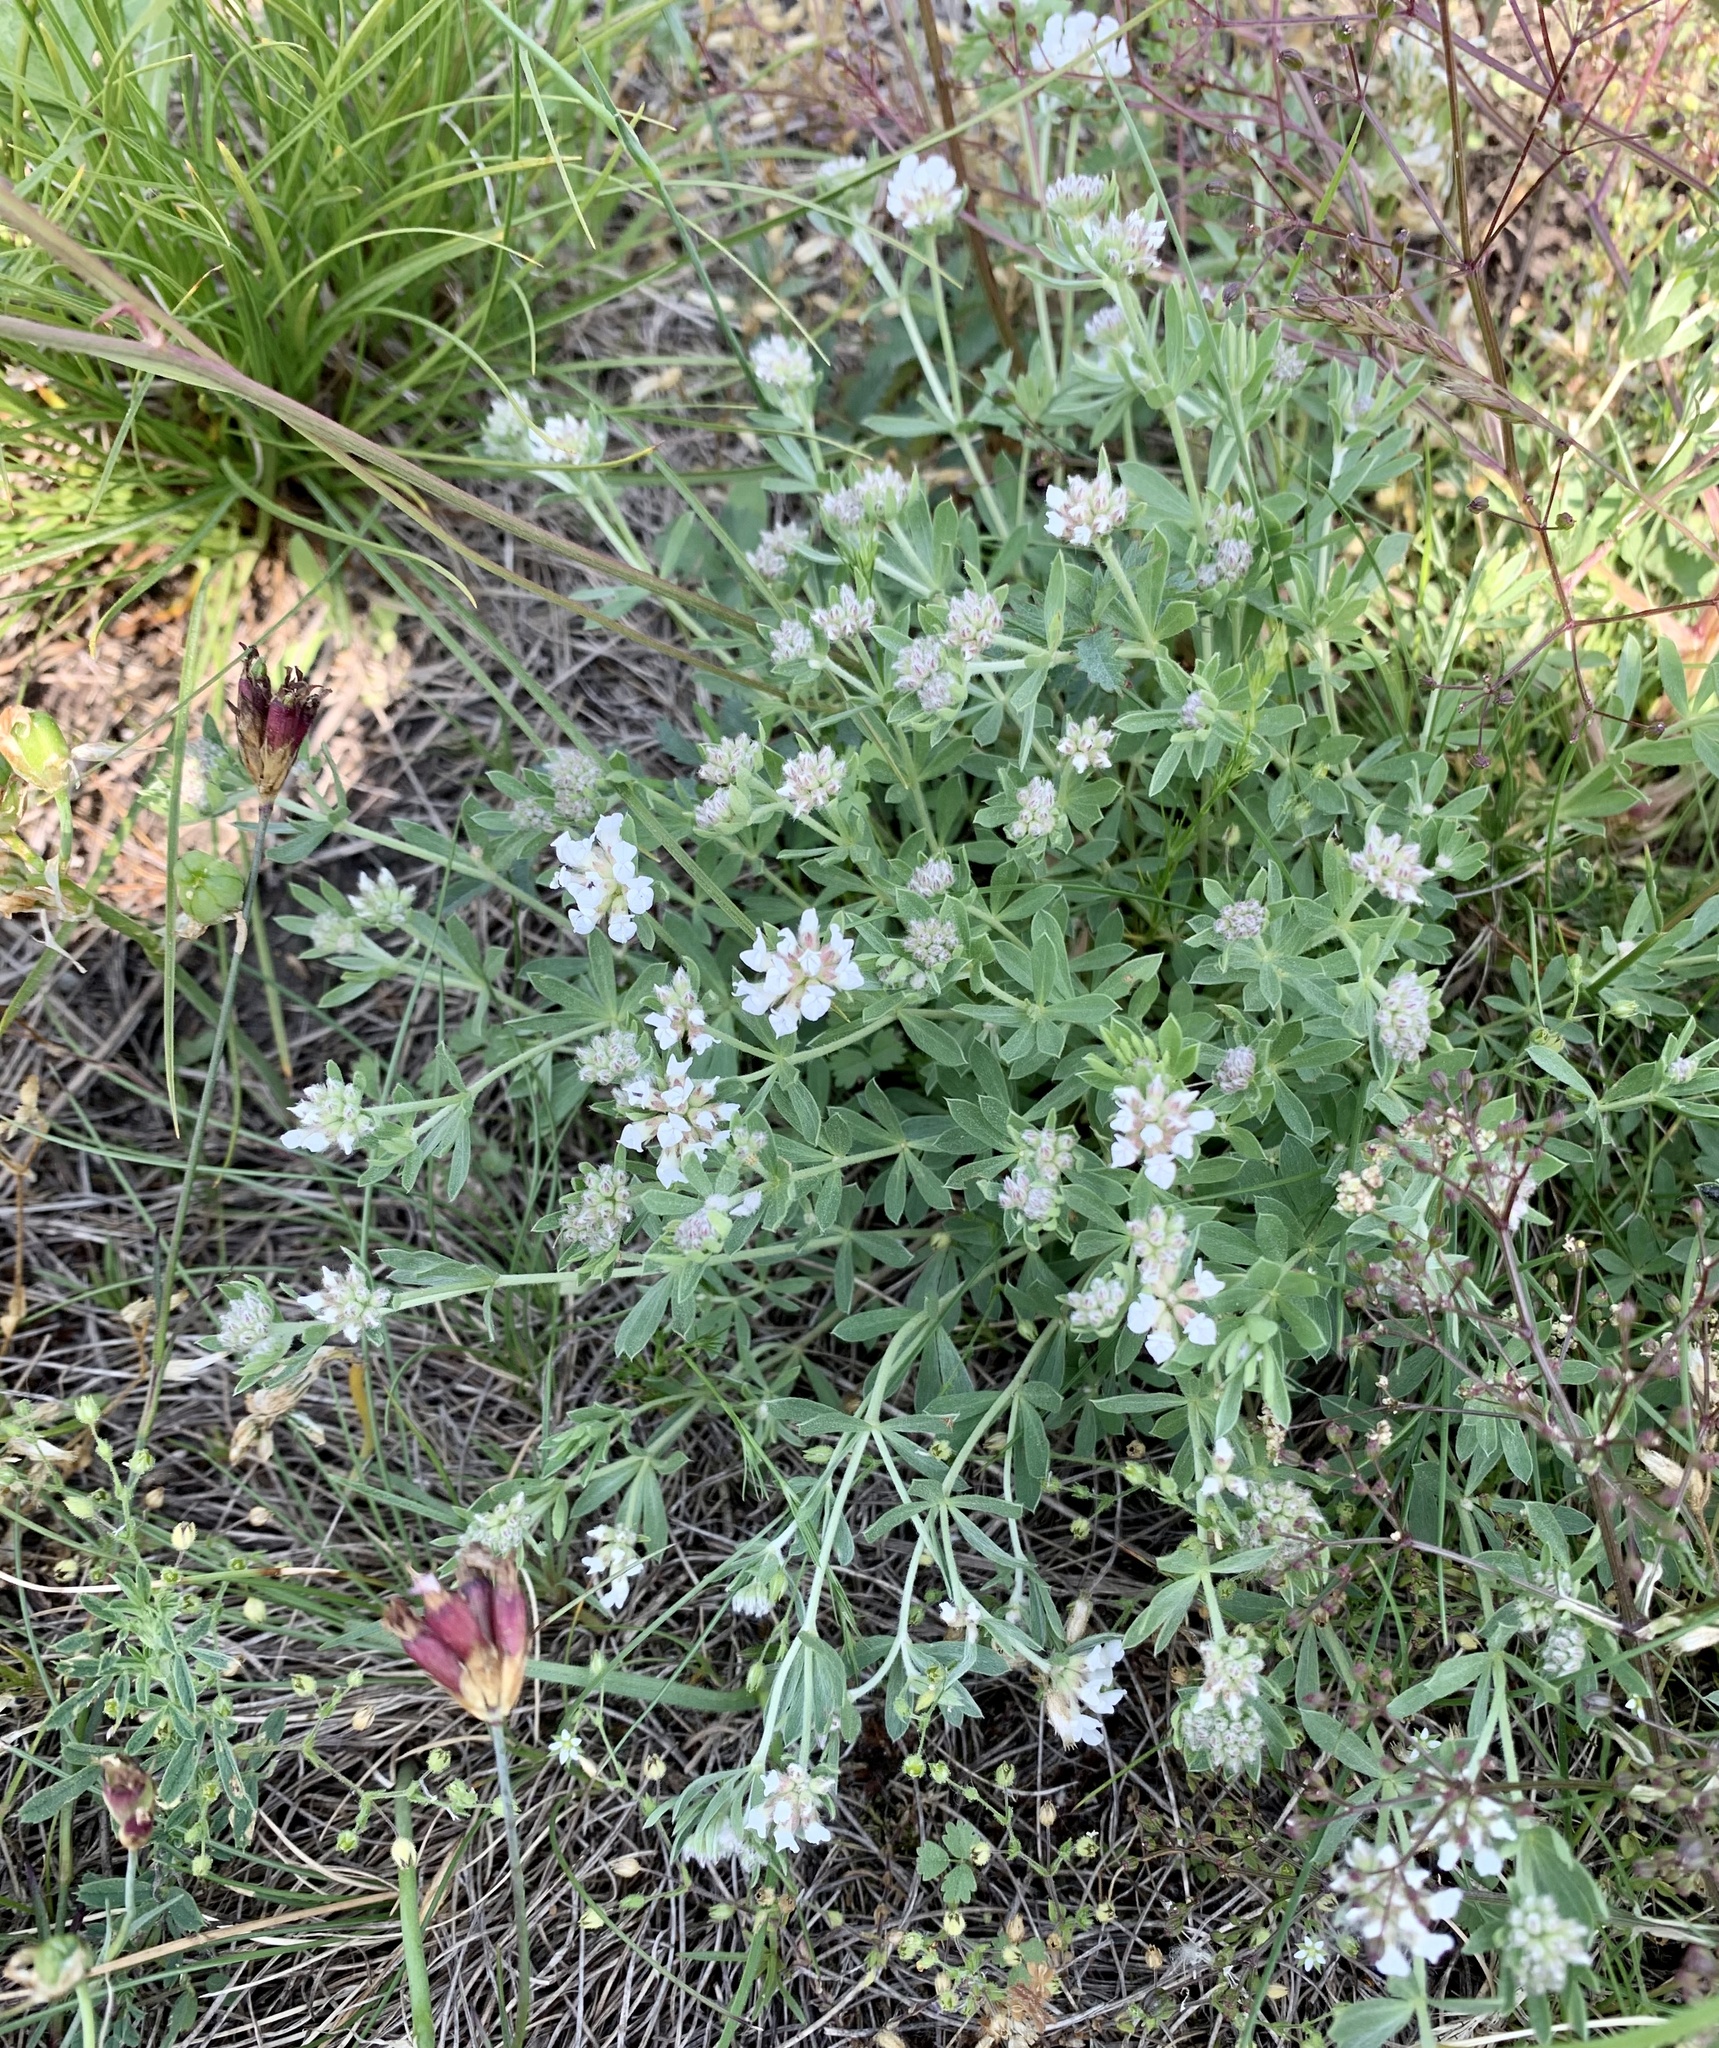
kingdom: Plantae
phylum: Tracheophyta
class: Magnoliopsida
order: Fabales
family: Fabaceae
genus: Lotus
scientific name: Lotus germanicus
